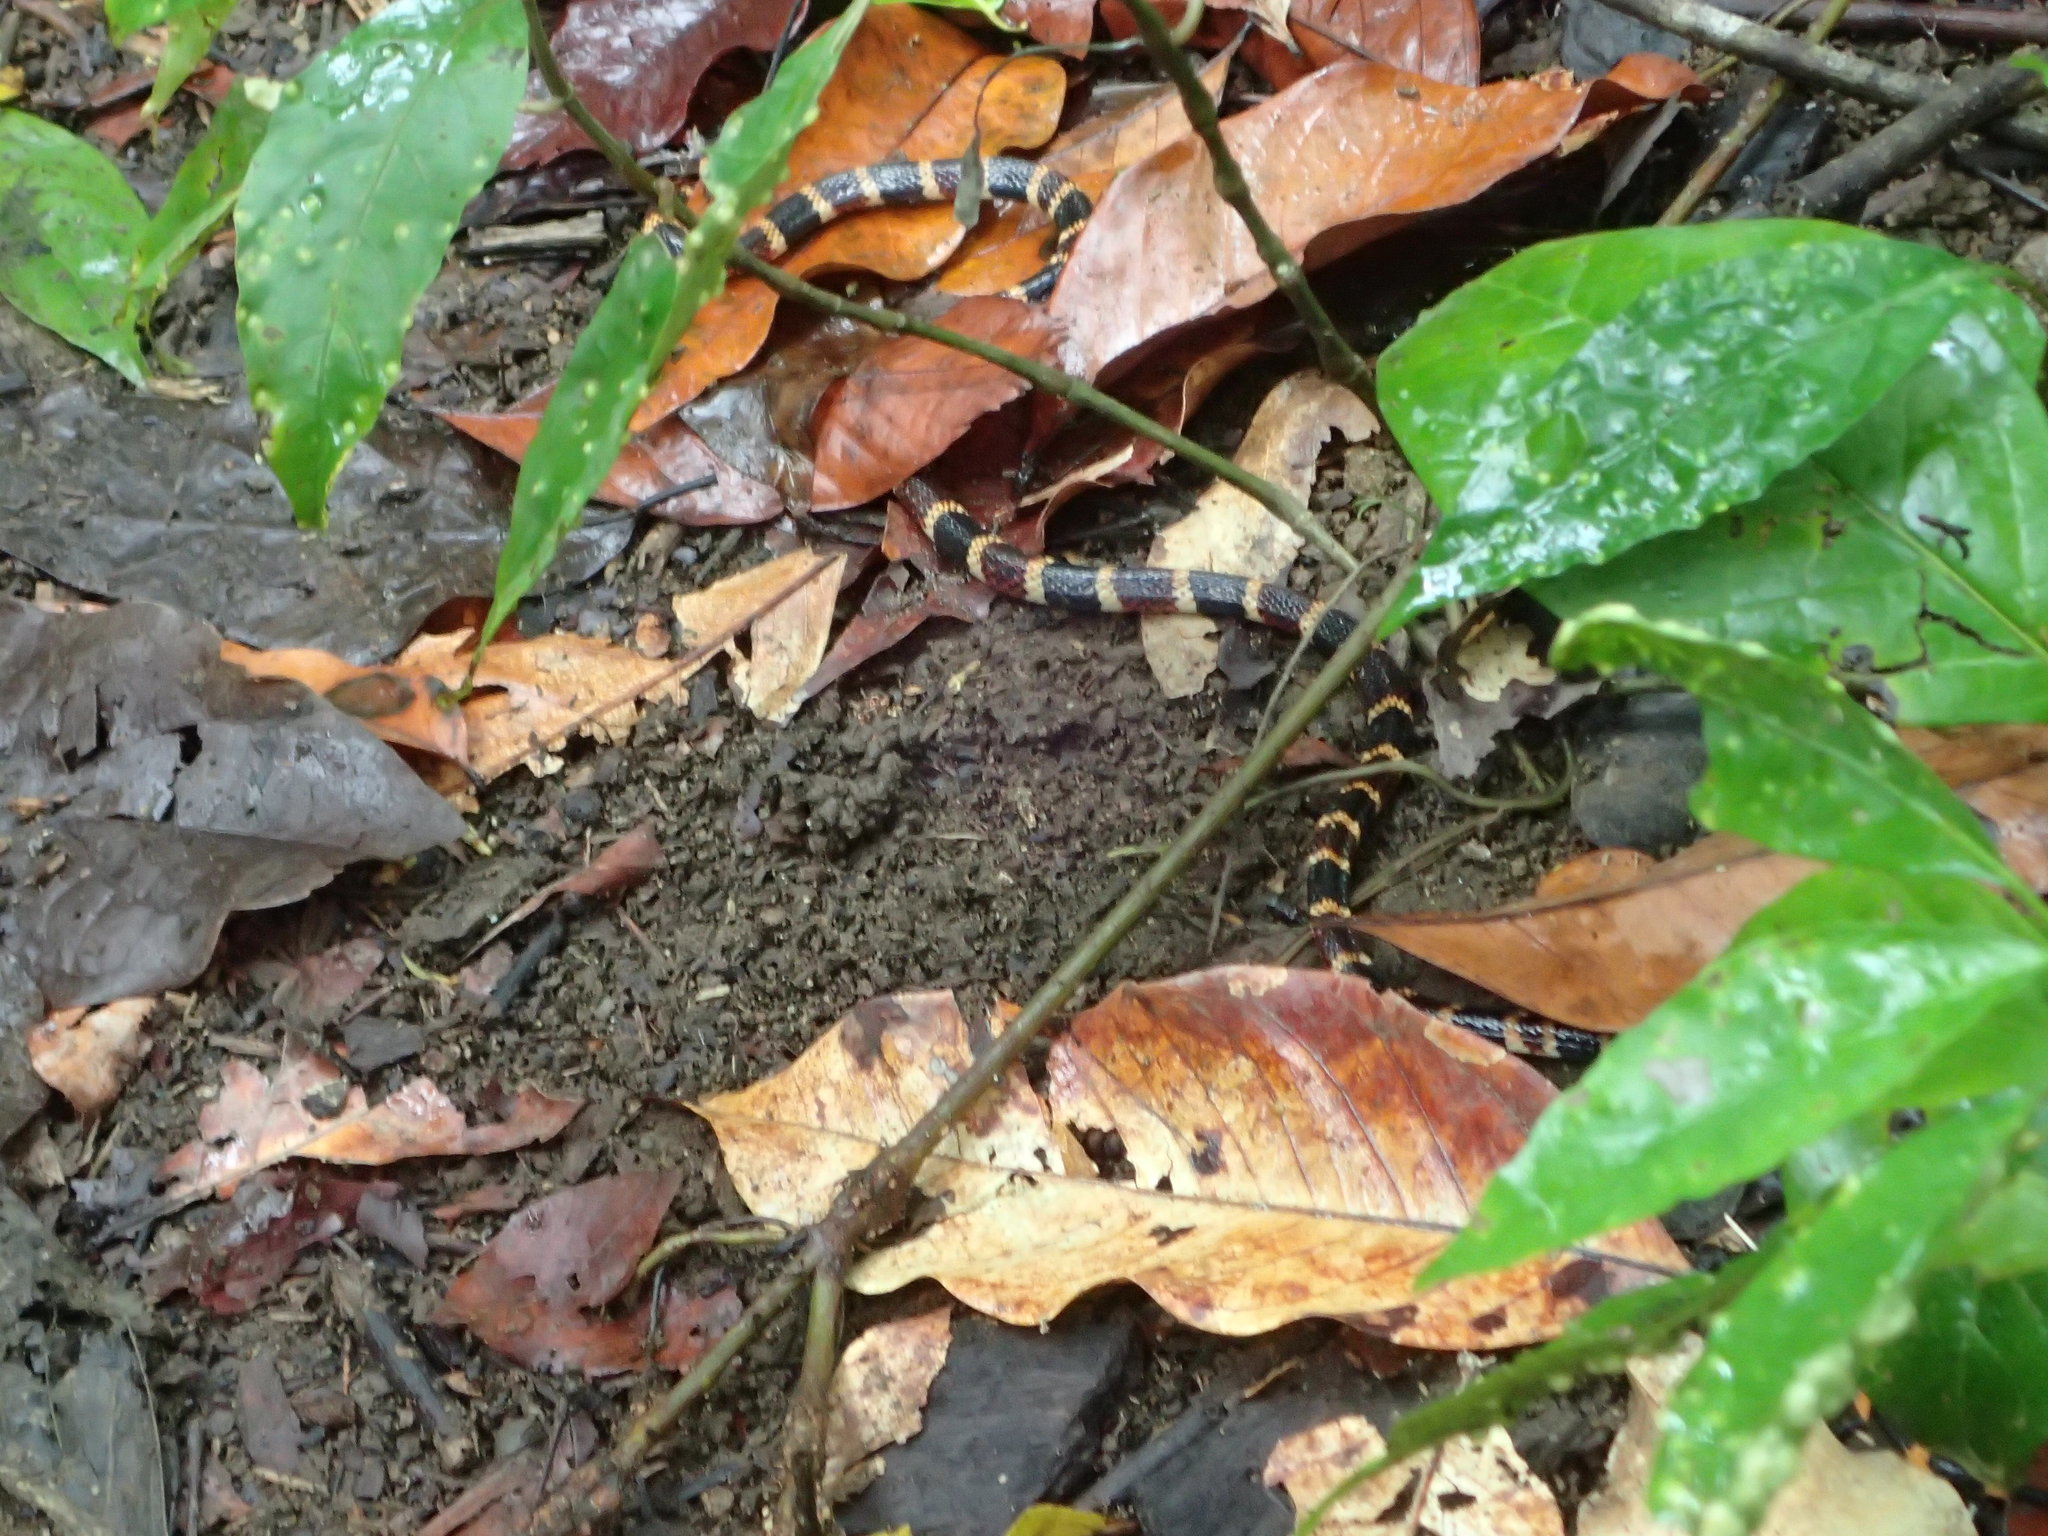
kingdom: Animalia
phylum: Chordata
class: Squamata
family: Elapidae
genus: Micrurus
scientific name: Micrurus alleni
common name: Allen's coral snake
